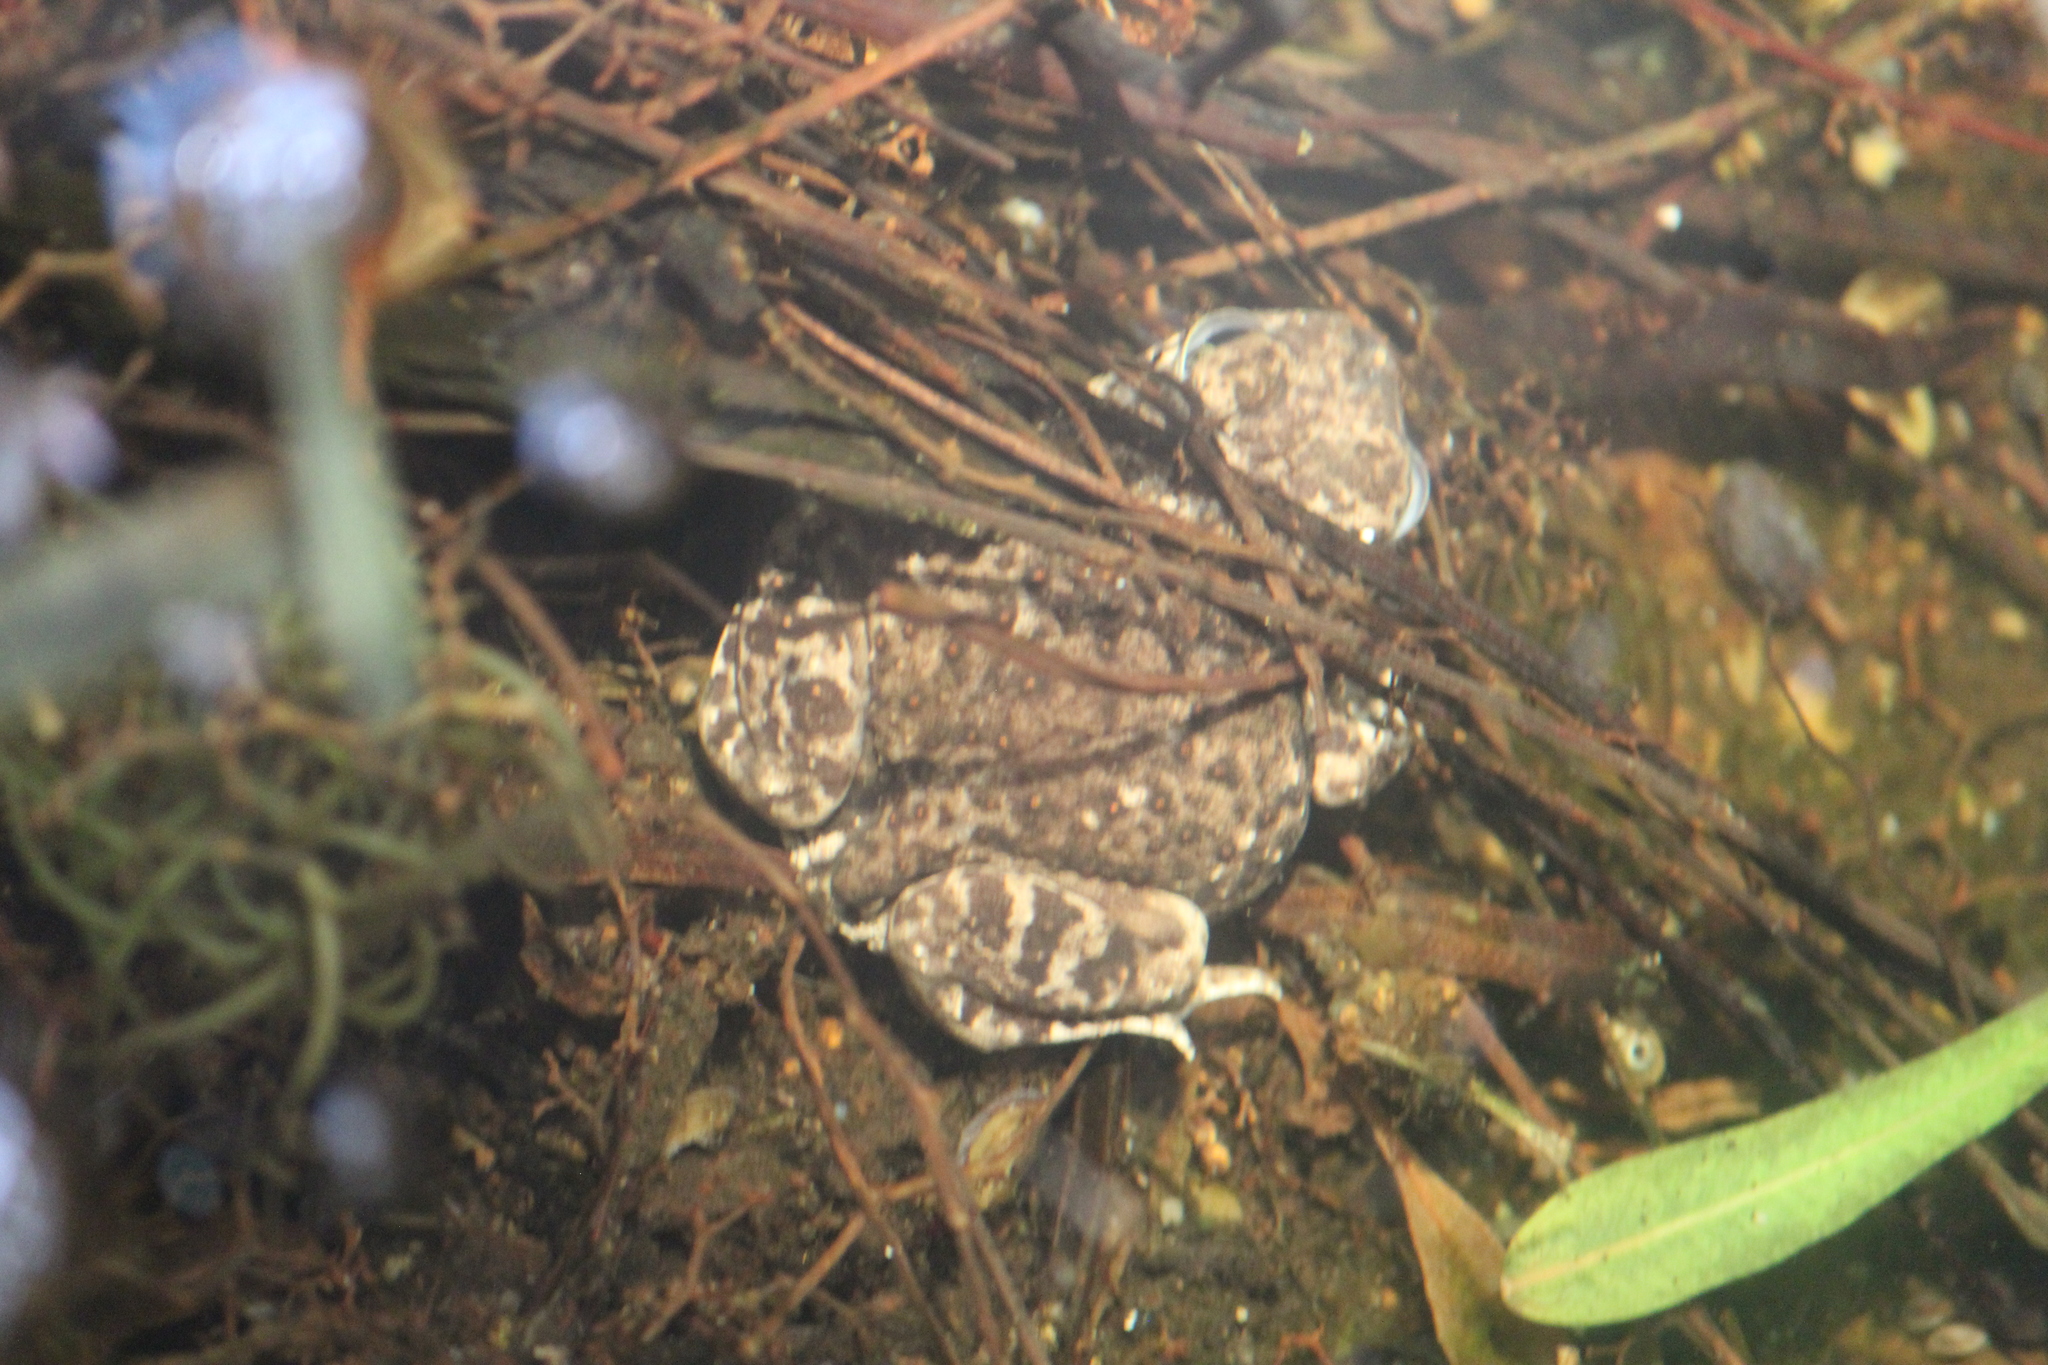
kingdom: Animalia
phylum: Chordata
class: Amphibia
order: Anura
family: Scaphiopodidae
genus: Spea
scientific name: Spea multiplicata
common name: Mexican spadefoot
